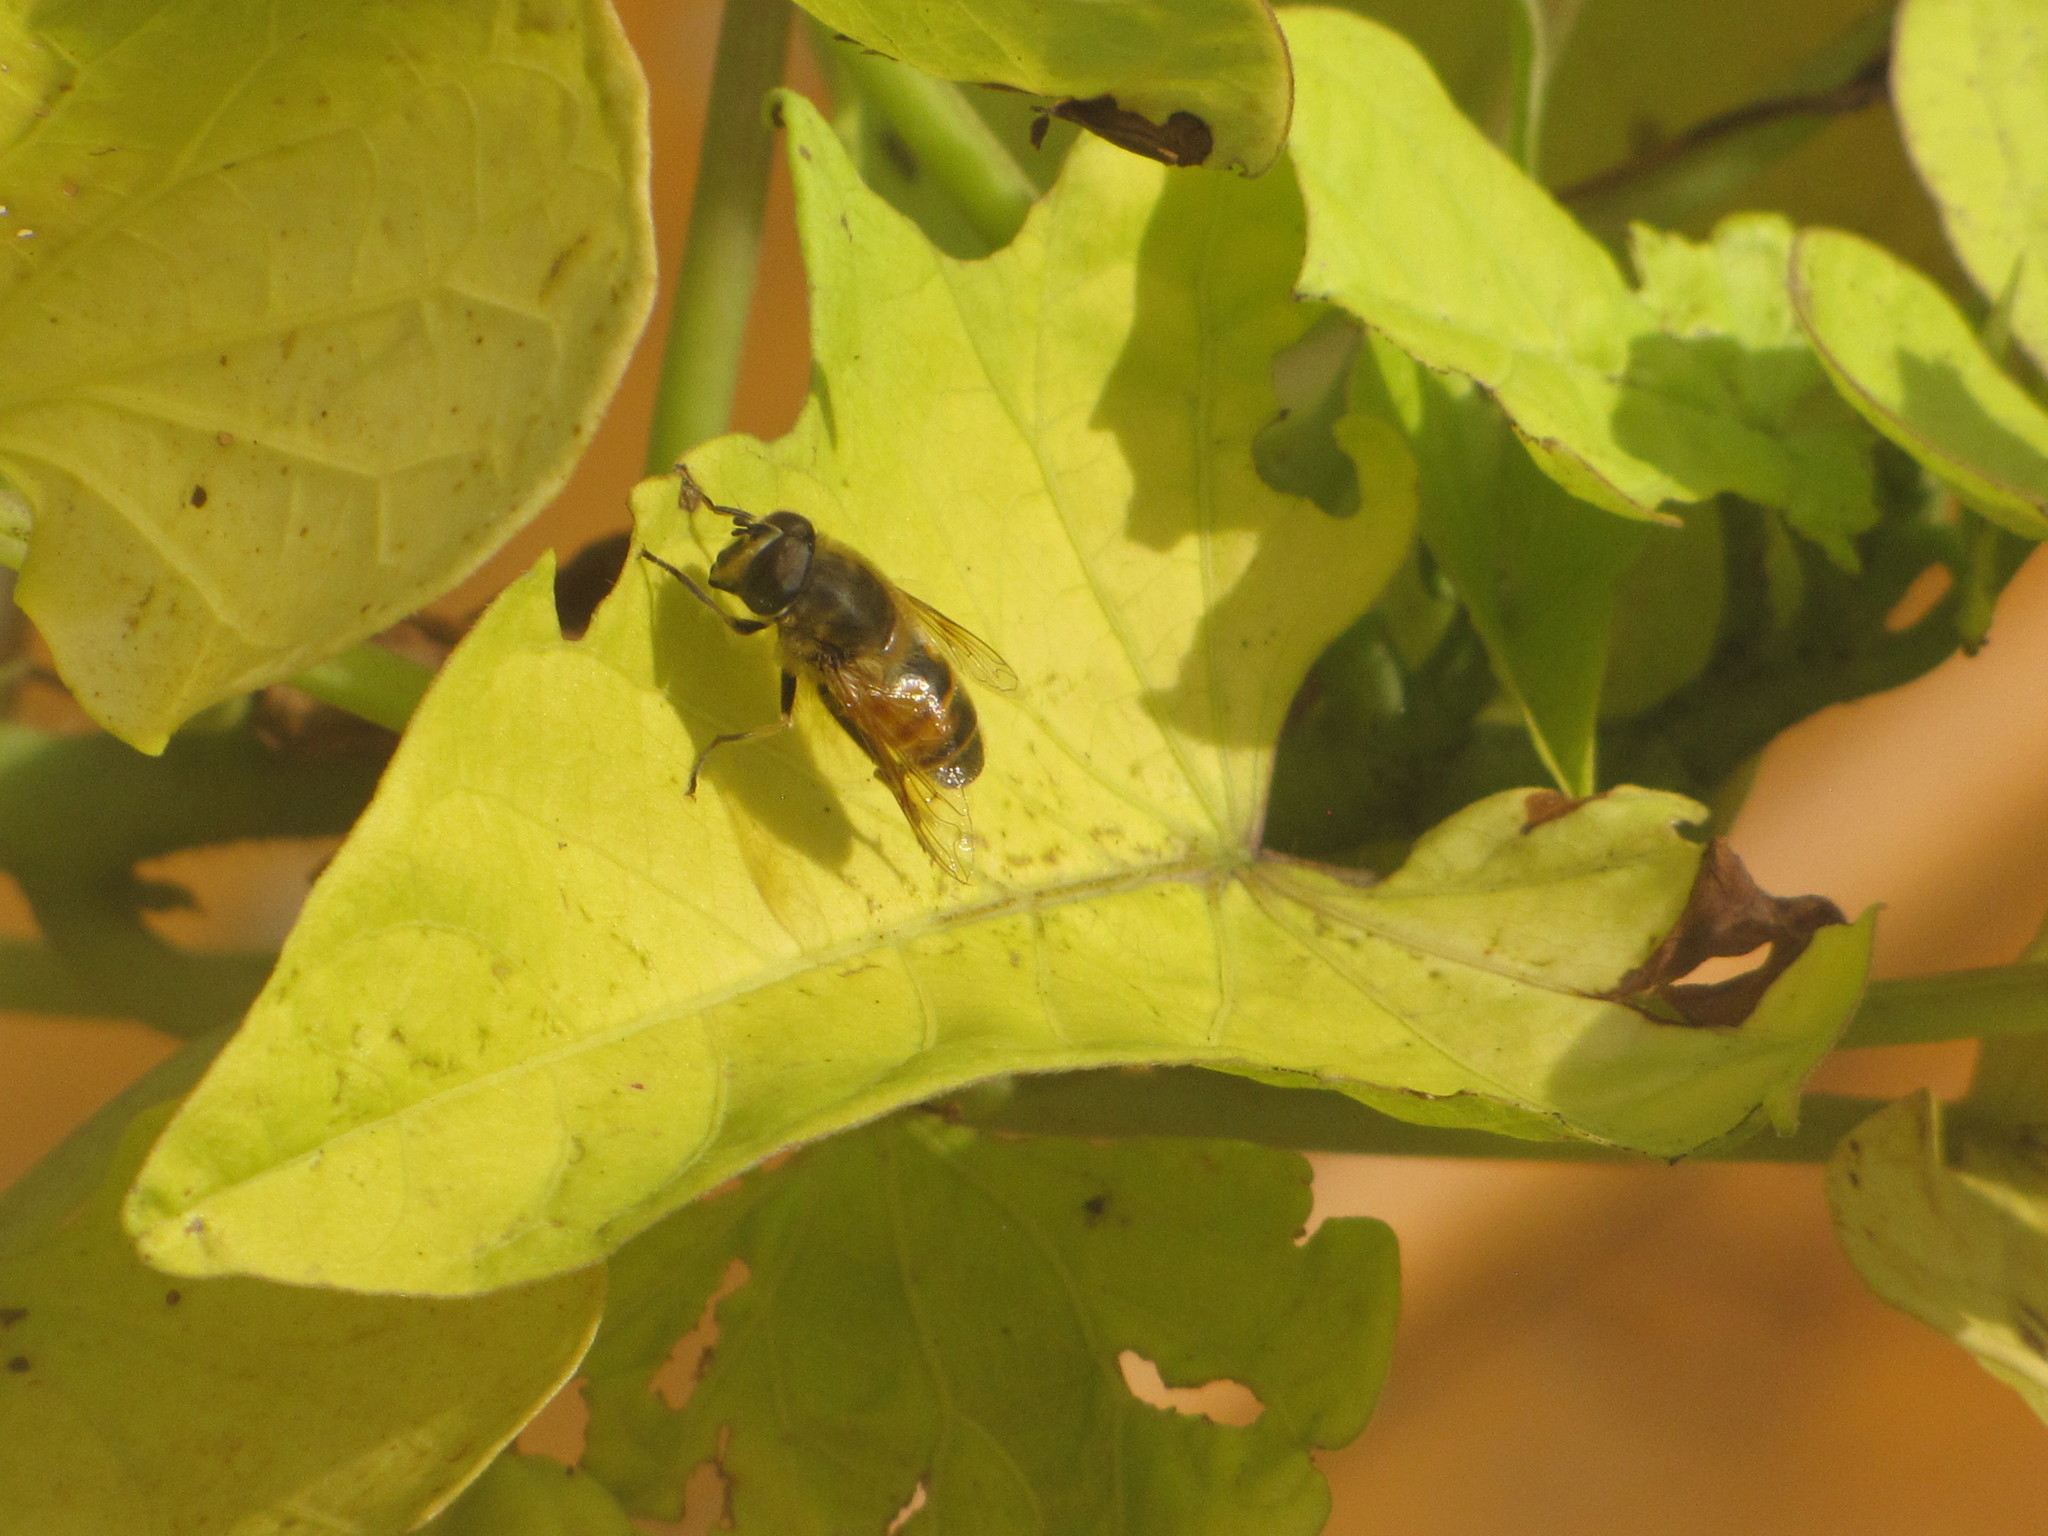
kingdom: Animalia
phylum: Arthropoda
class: Insecta
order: Diptera
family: Syrphidae
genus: Eristalis
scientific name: Eristalis tenax
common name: Drone fly
